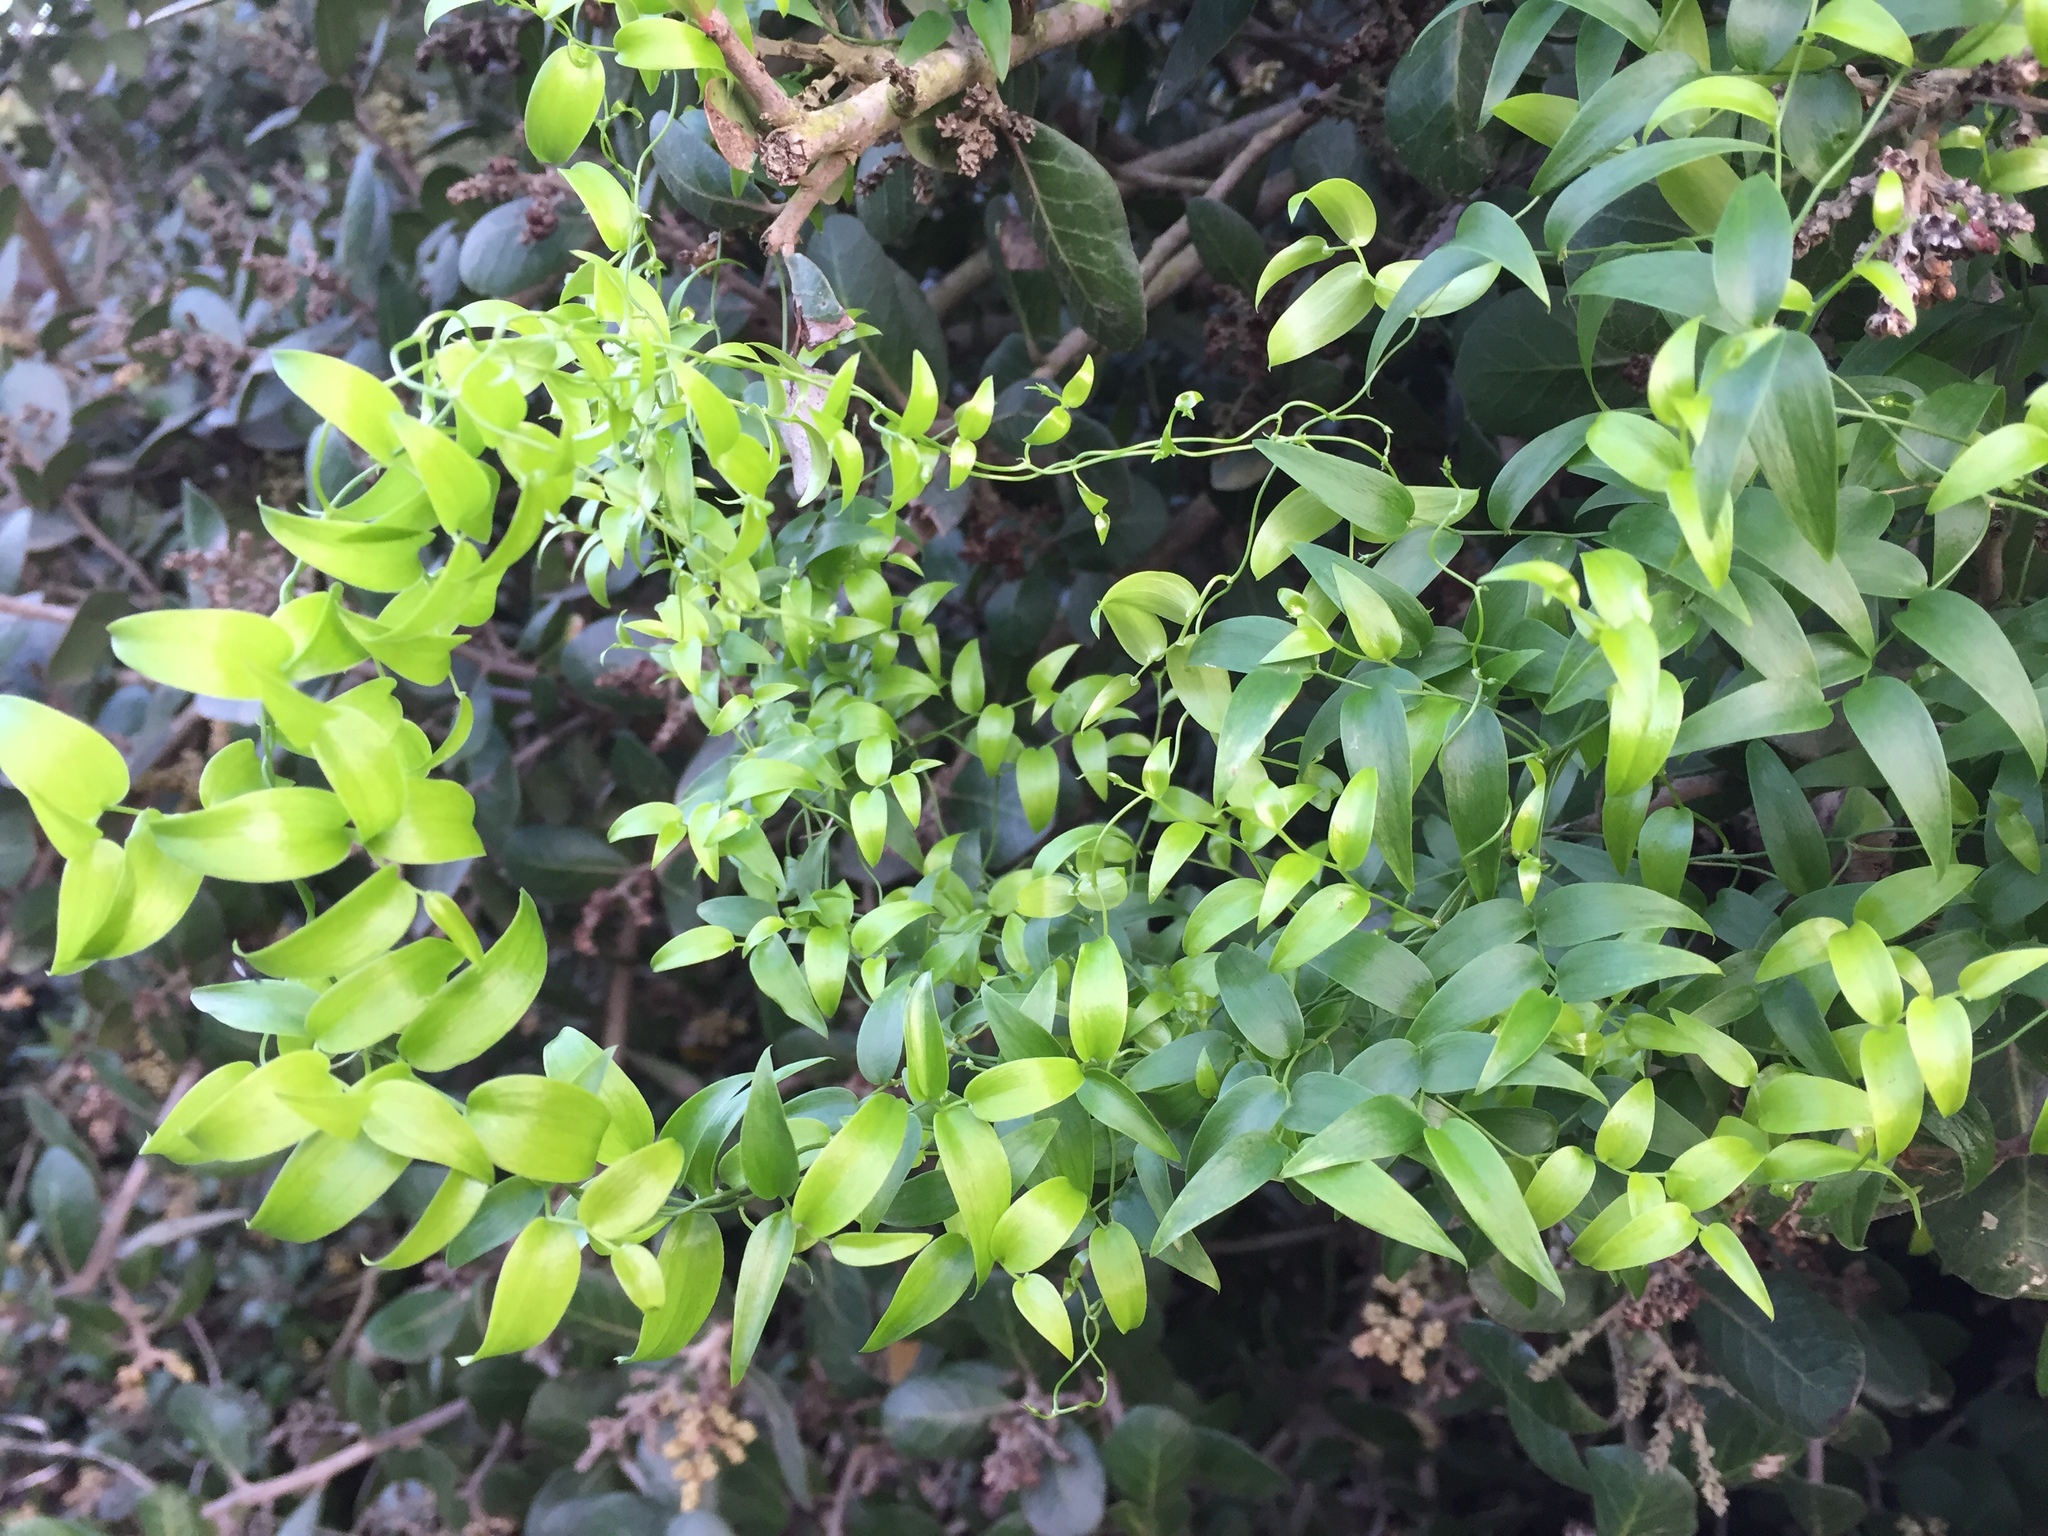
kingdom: Plantae
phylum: Tracheophyta
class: Liliopsida
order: Asparagales
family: Asparagaceae
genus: Asparagus
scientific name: Asparagus asparagoides
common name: African asparagus fern
